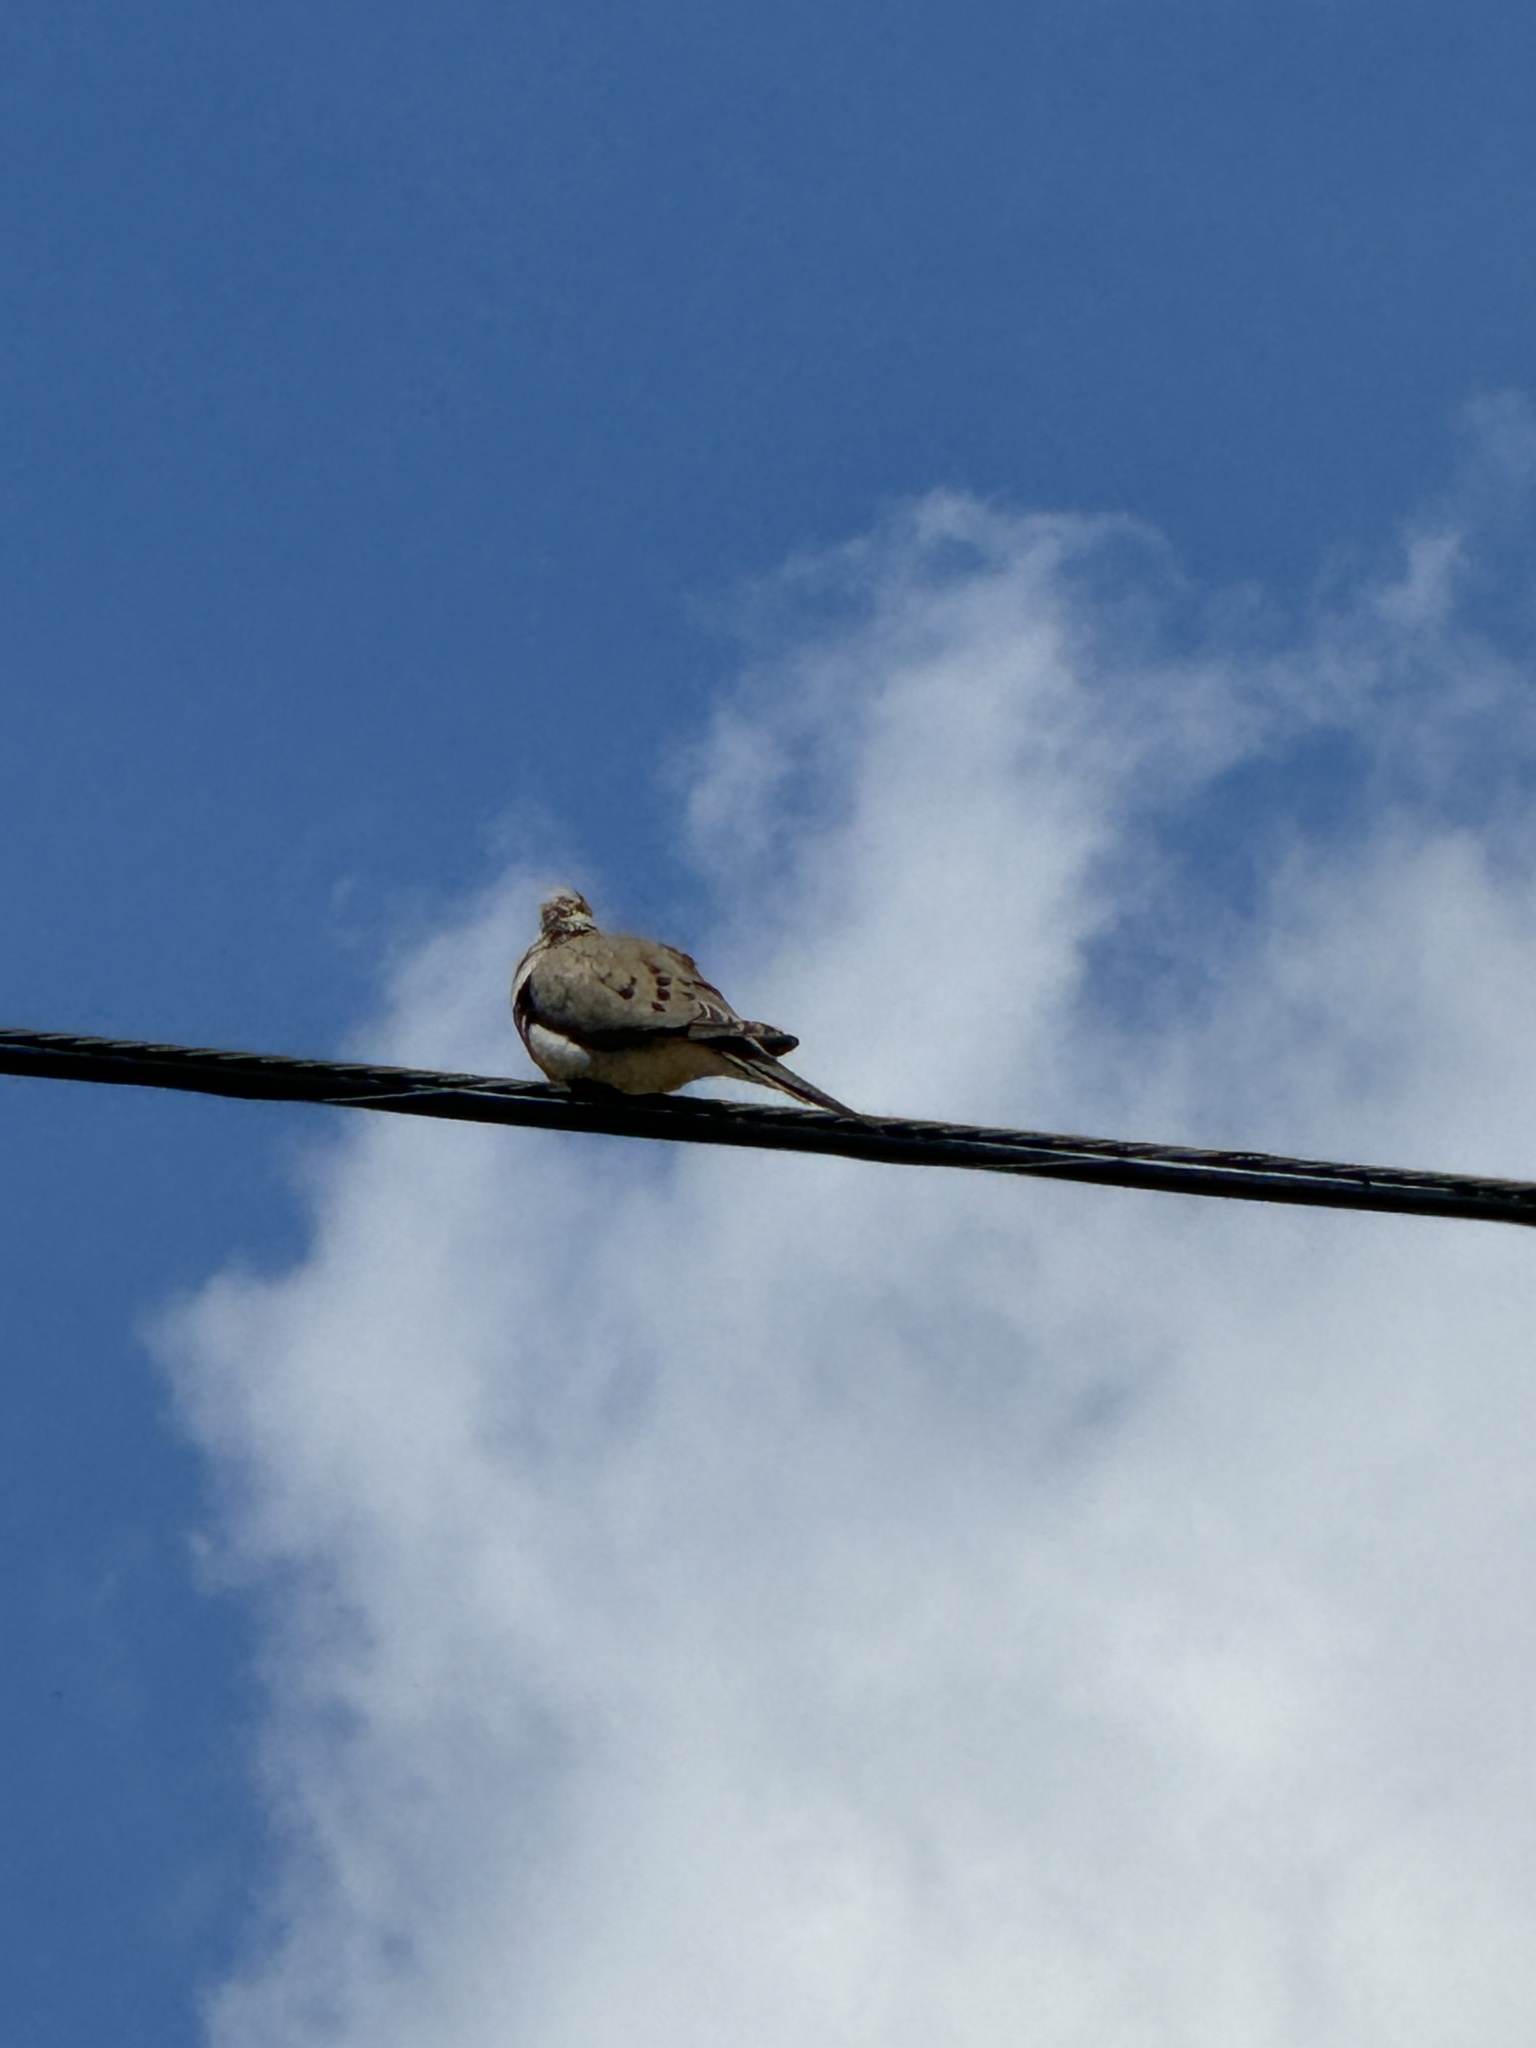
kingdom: Animalia
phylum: Chordata
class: Aves
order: Columbiformes
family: Columbidae
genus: Zenaida
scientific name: Zenaida macroura
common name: Mourning dove
